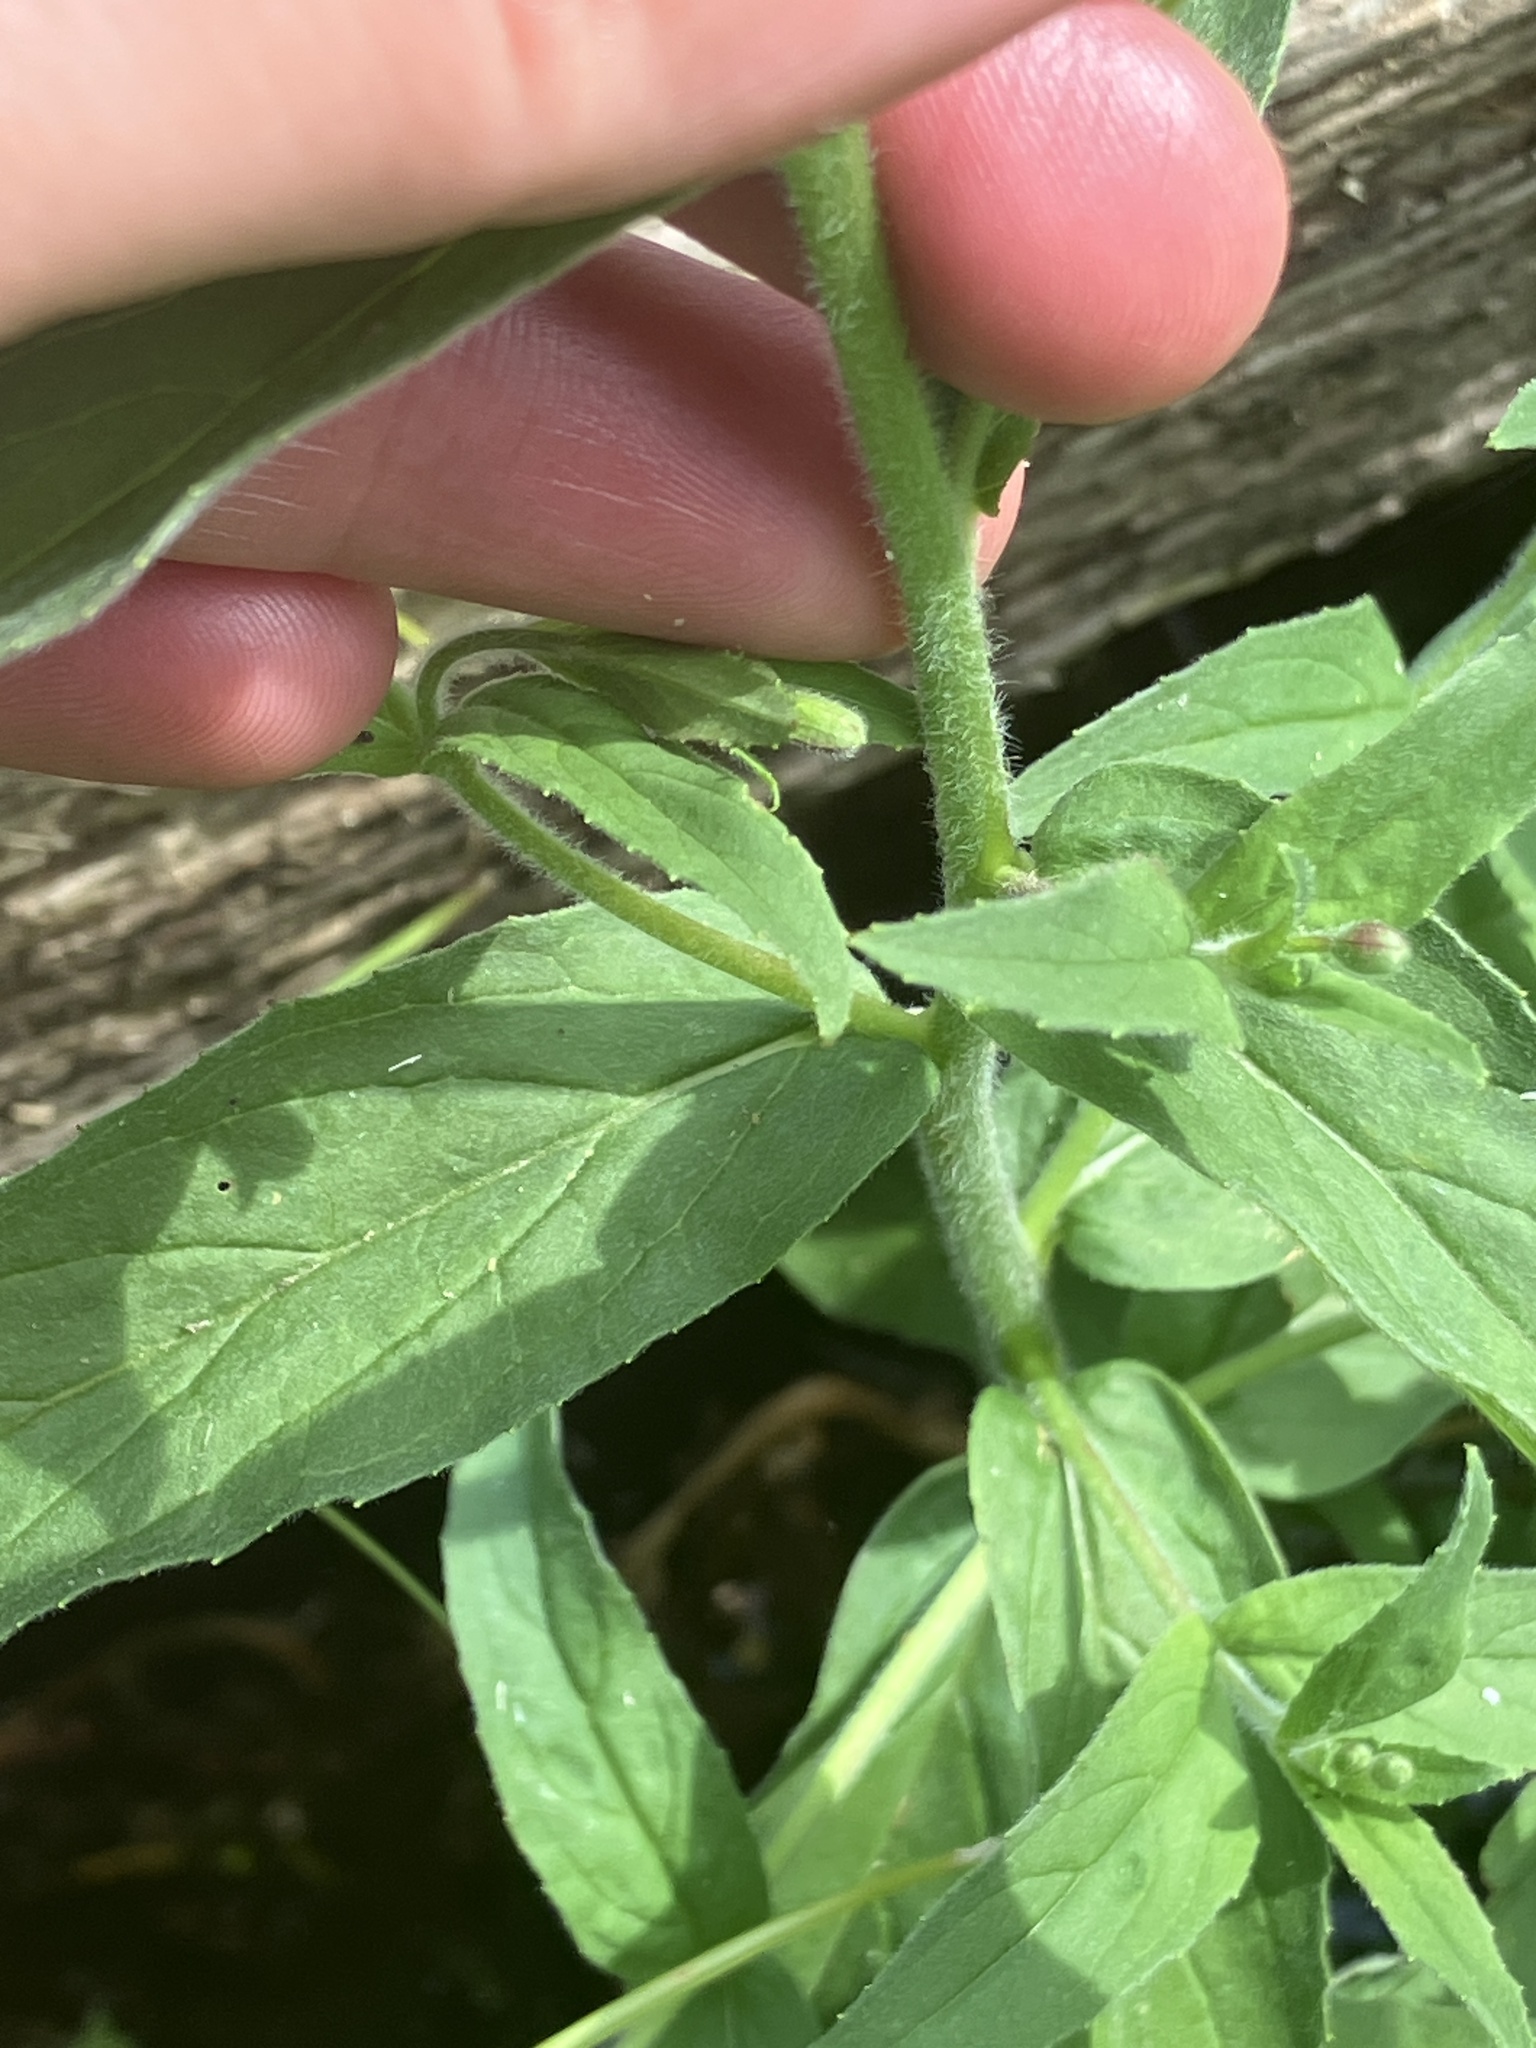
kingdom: Plantae
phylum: Tracheophyta
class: Magnoliopsida
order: Myrtales
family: Onagraceae
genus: Epilobium
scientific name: Epilobium parviflorum
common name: Hoary willowherb
